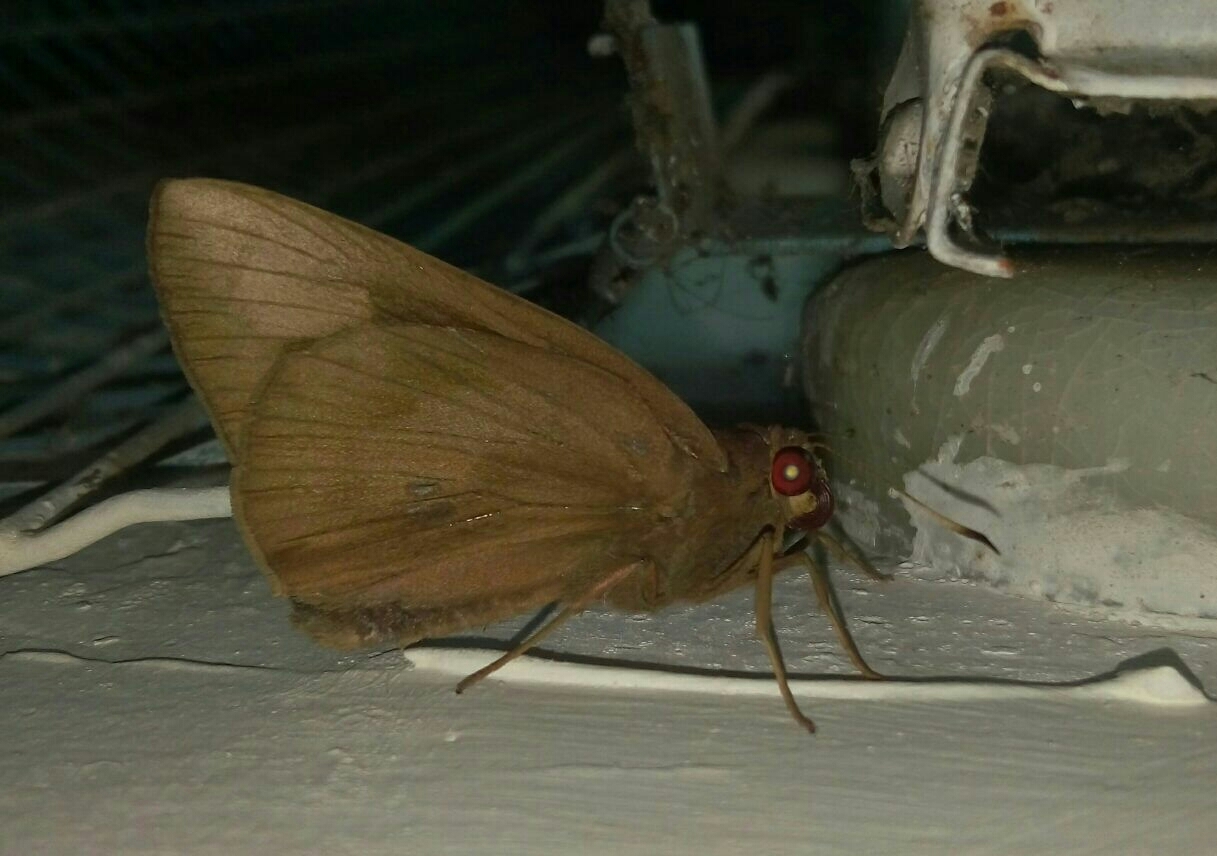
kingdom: Animalia
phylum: Arthropoda
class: Insecta
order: Lepidoptera
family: Hesperiidae
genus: Erionota
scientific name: Erionota torus
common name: Rounded palm-redeye
